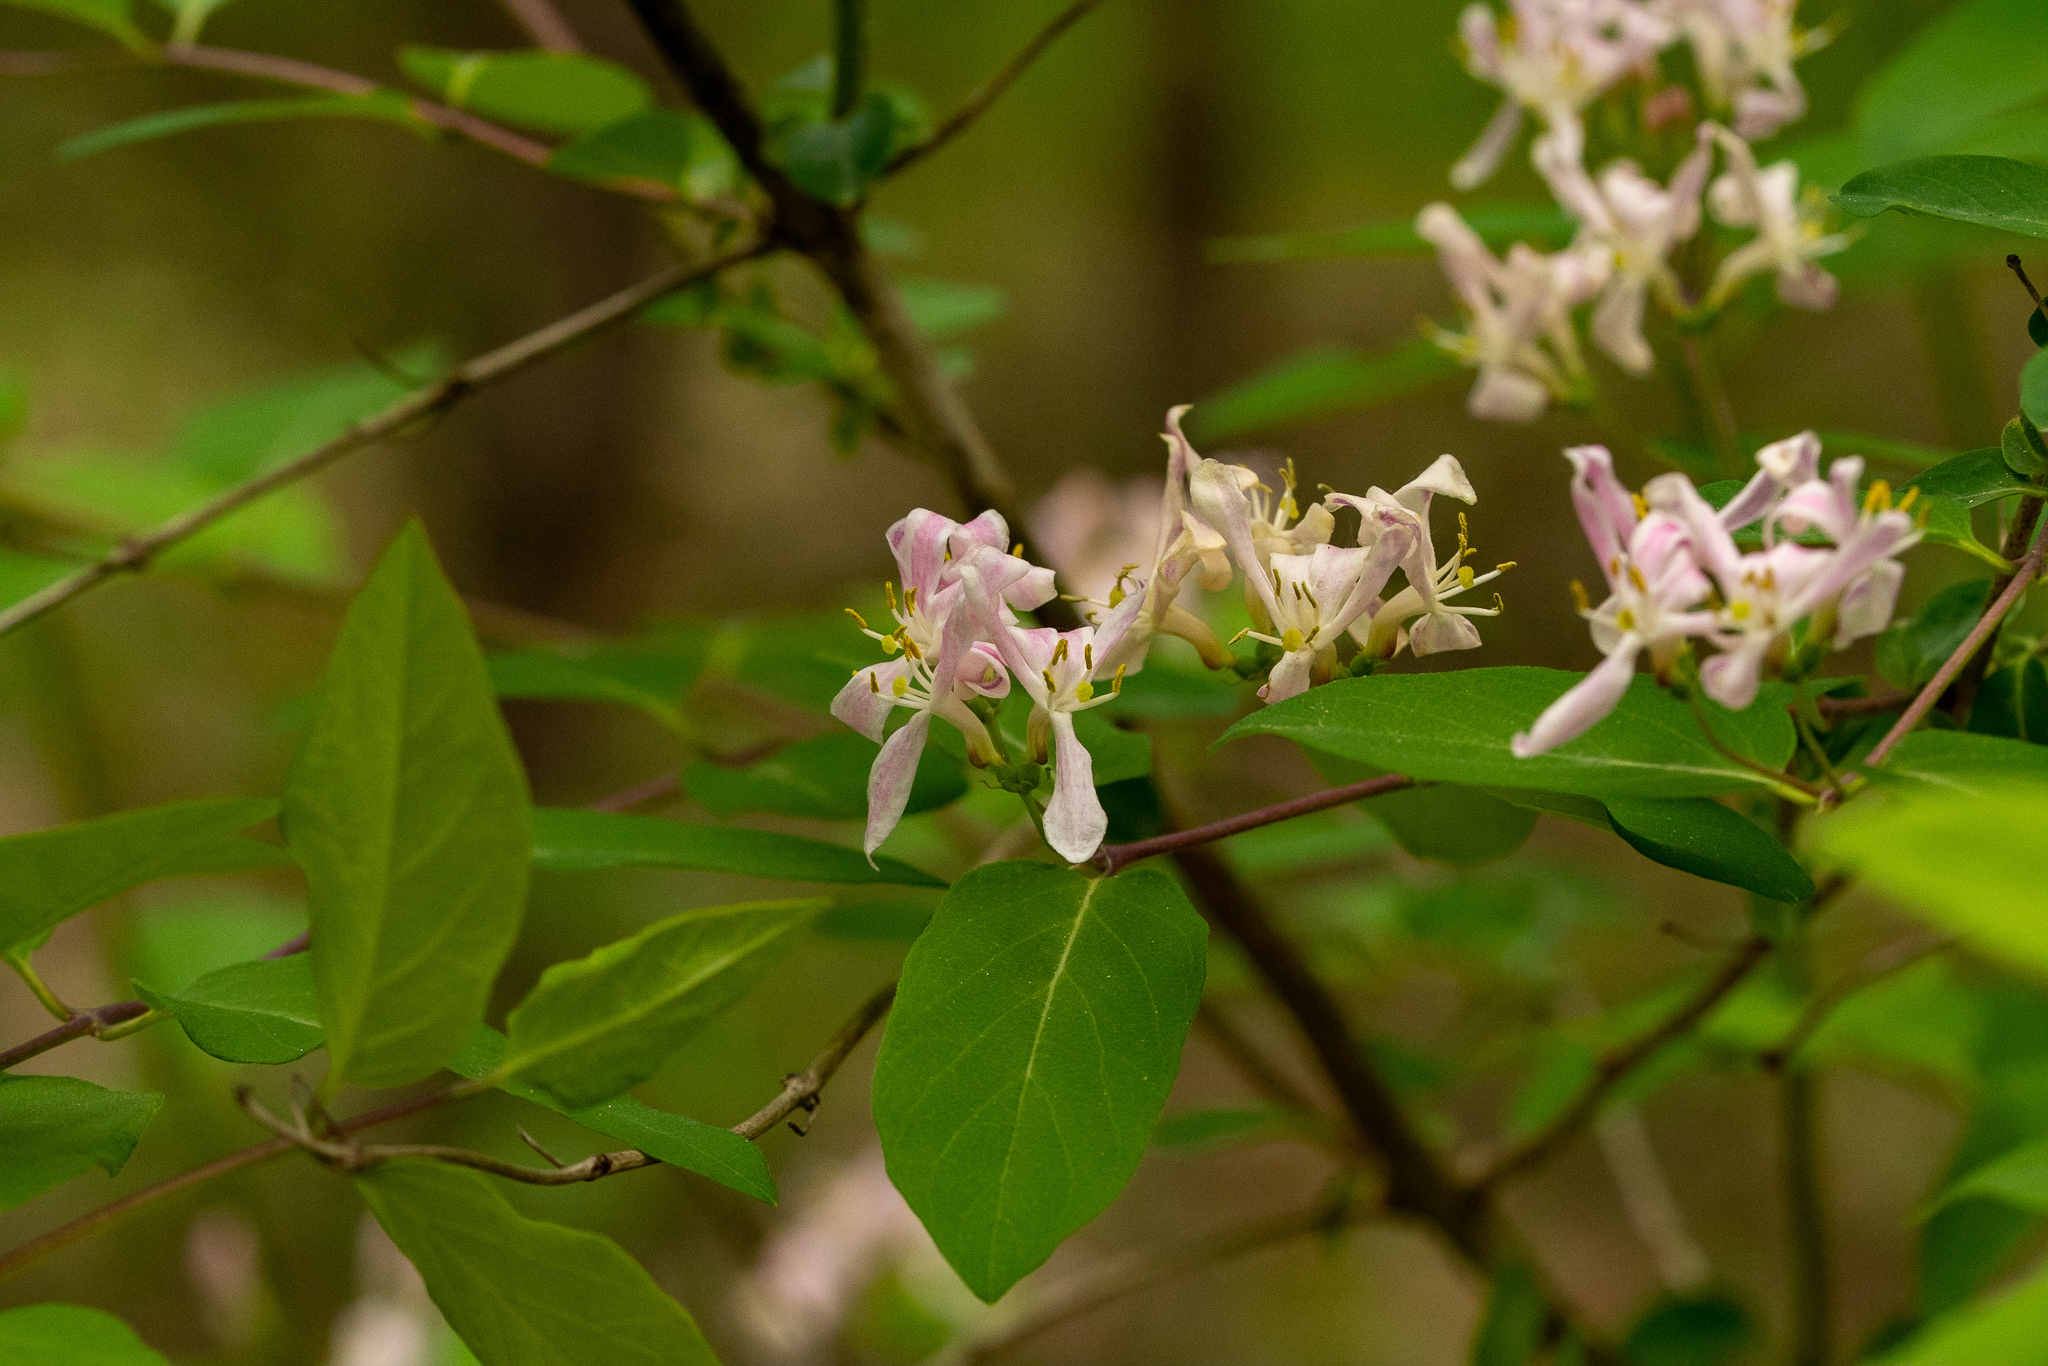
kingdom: Plantae
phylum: Tracheophyta
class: Magnoliopsida
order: Dipsacales
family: Caprifoliaceae
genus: Lonicera
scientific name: Lonicera bella
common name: Bell's honeysuckle
